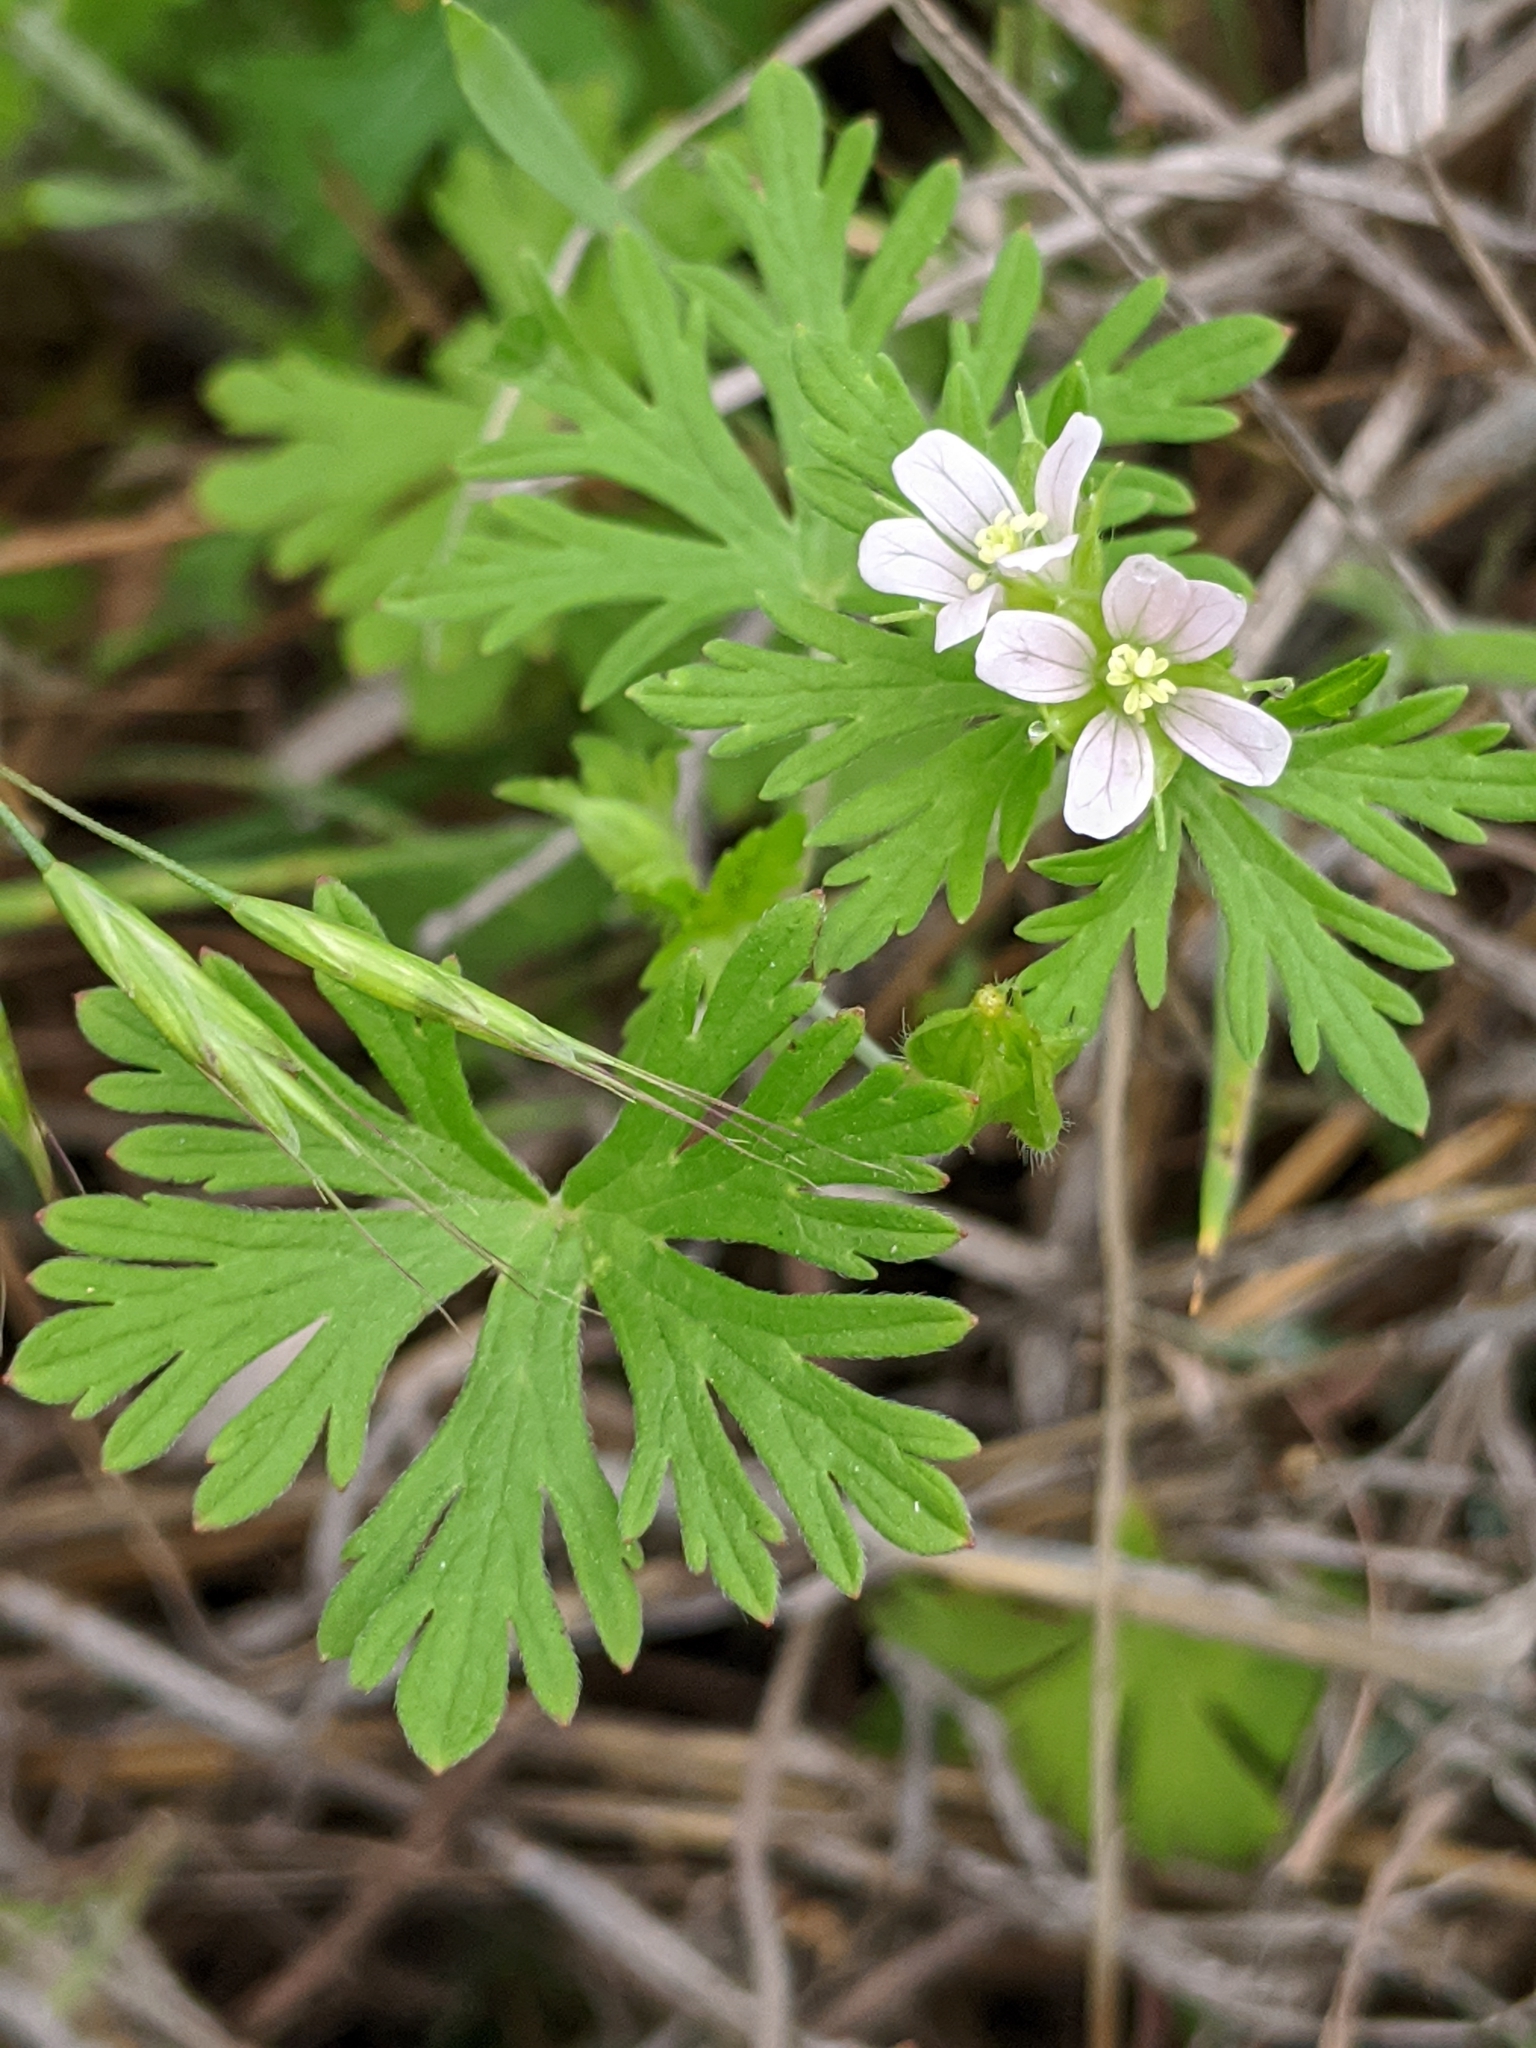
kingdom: Plantae
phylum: Tracheophyta
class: Magnoliopsida
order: Geraniales
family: Geraniaceae
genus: Geranium
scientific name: Geranium carolinianum
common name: Carolina crane's-bill
